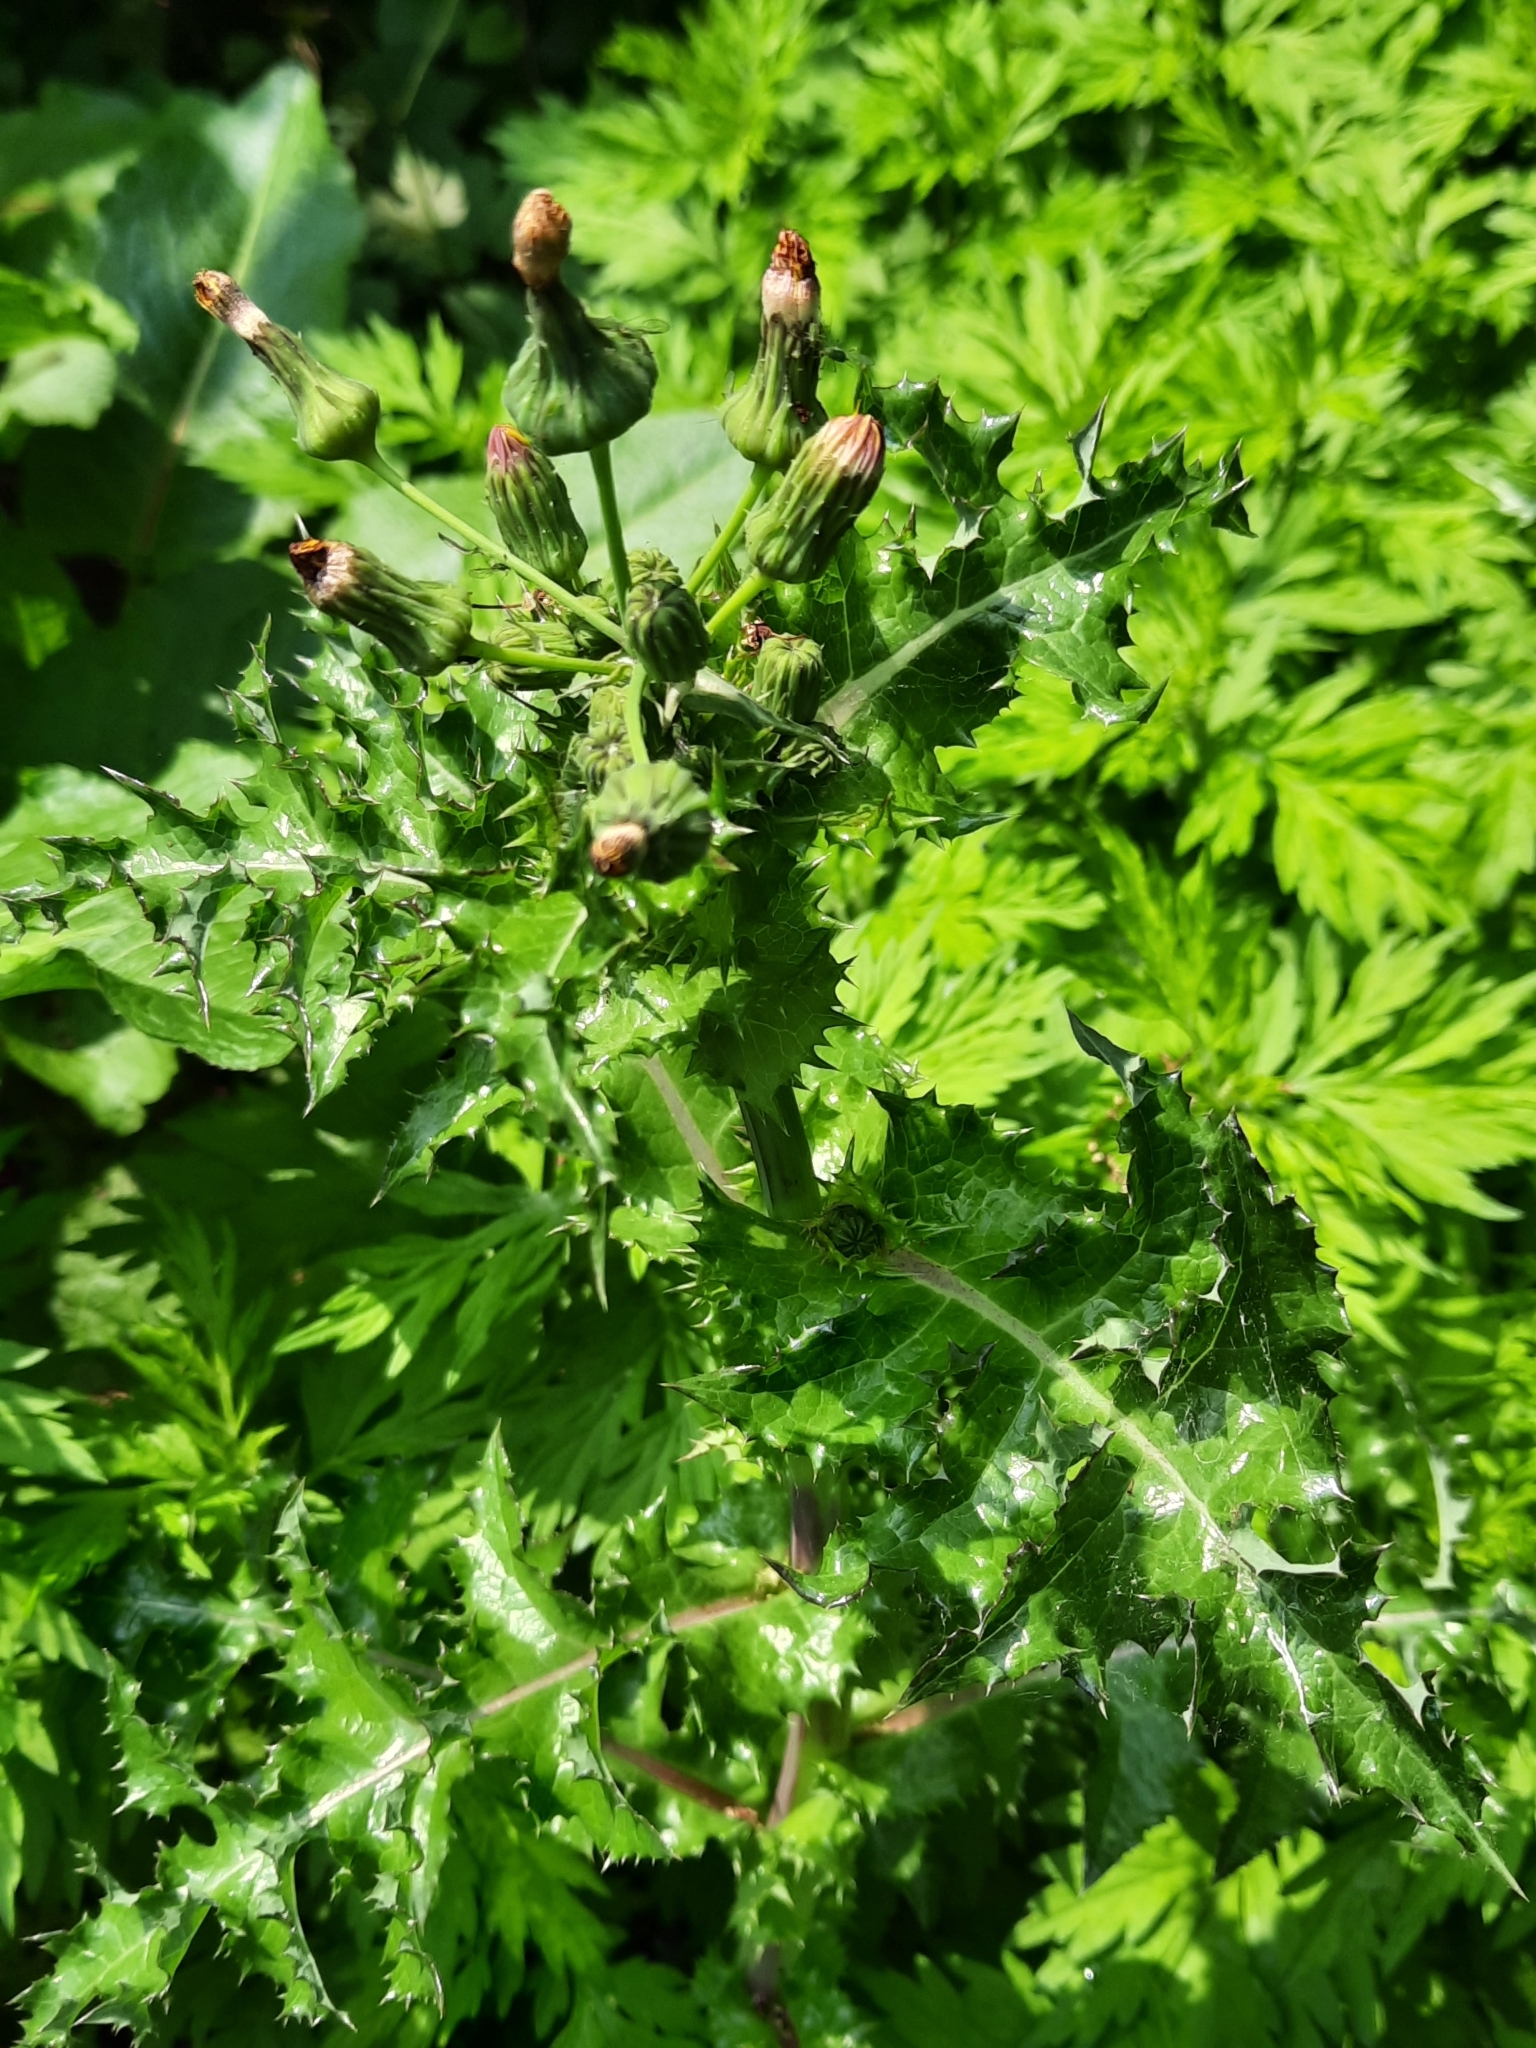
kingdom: Plantae
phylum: Tracheophyta
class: Magnoliopsida
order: Asterales
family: Asteraceae
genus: Sonchus
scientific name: Sonchus asper
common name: Prickly sow-thistle
